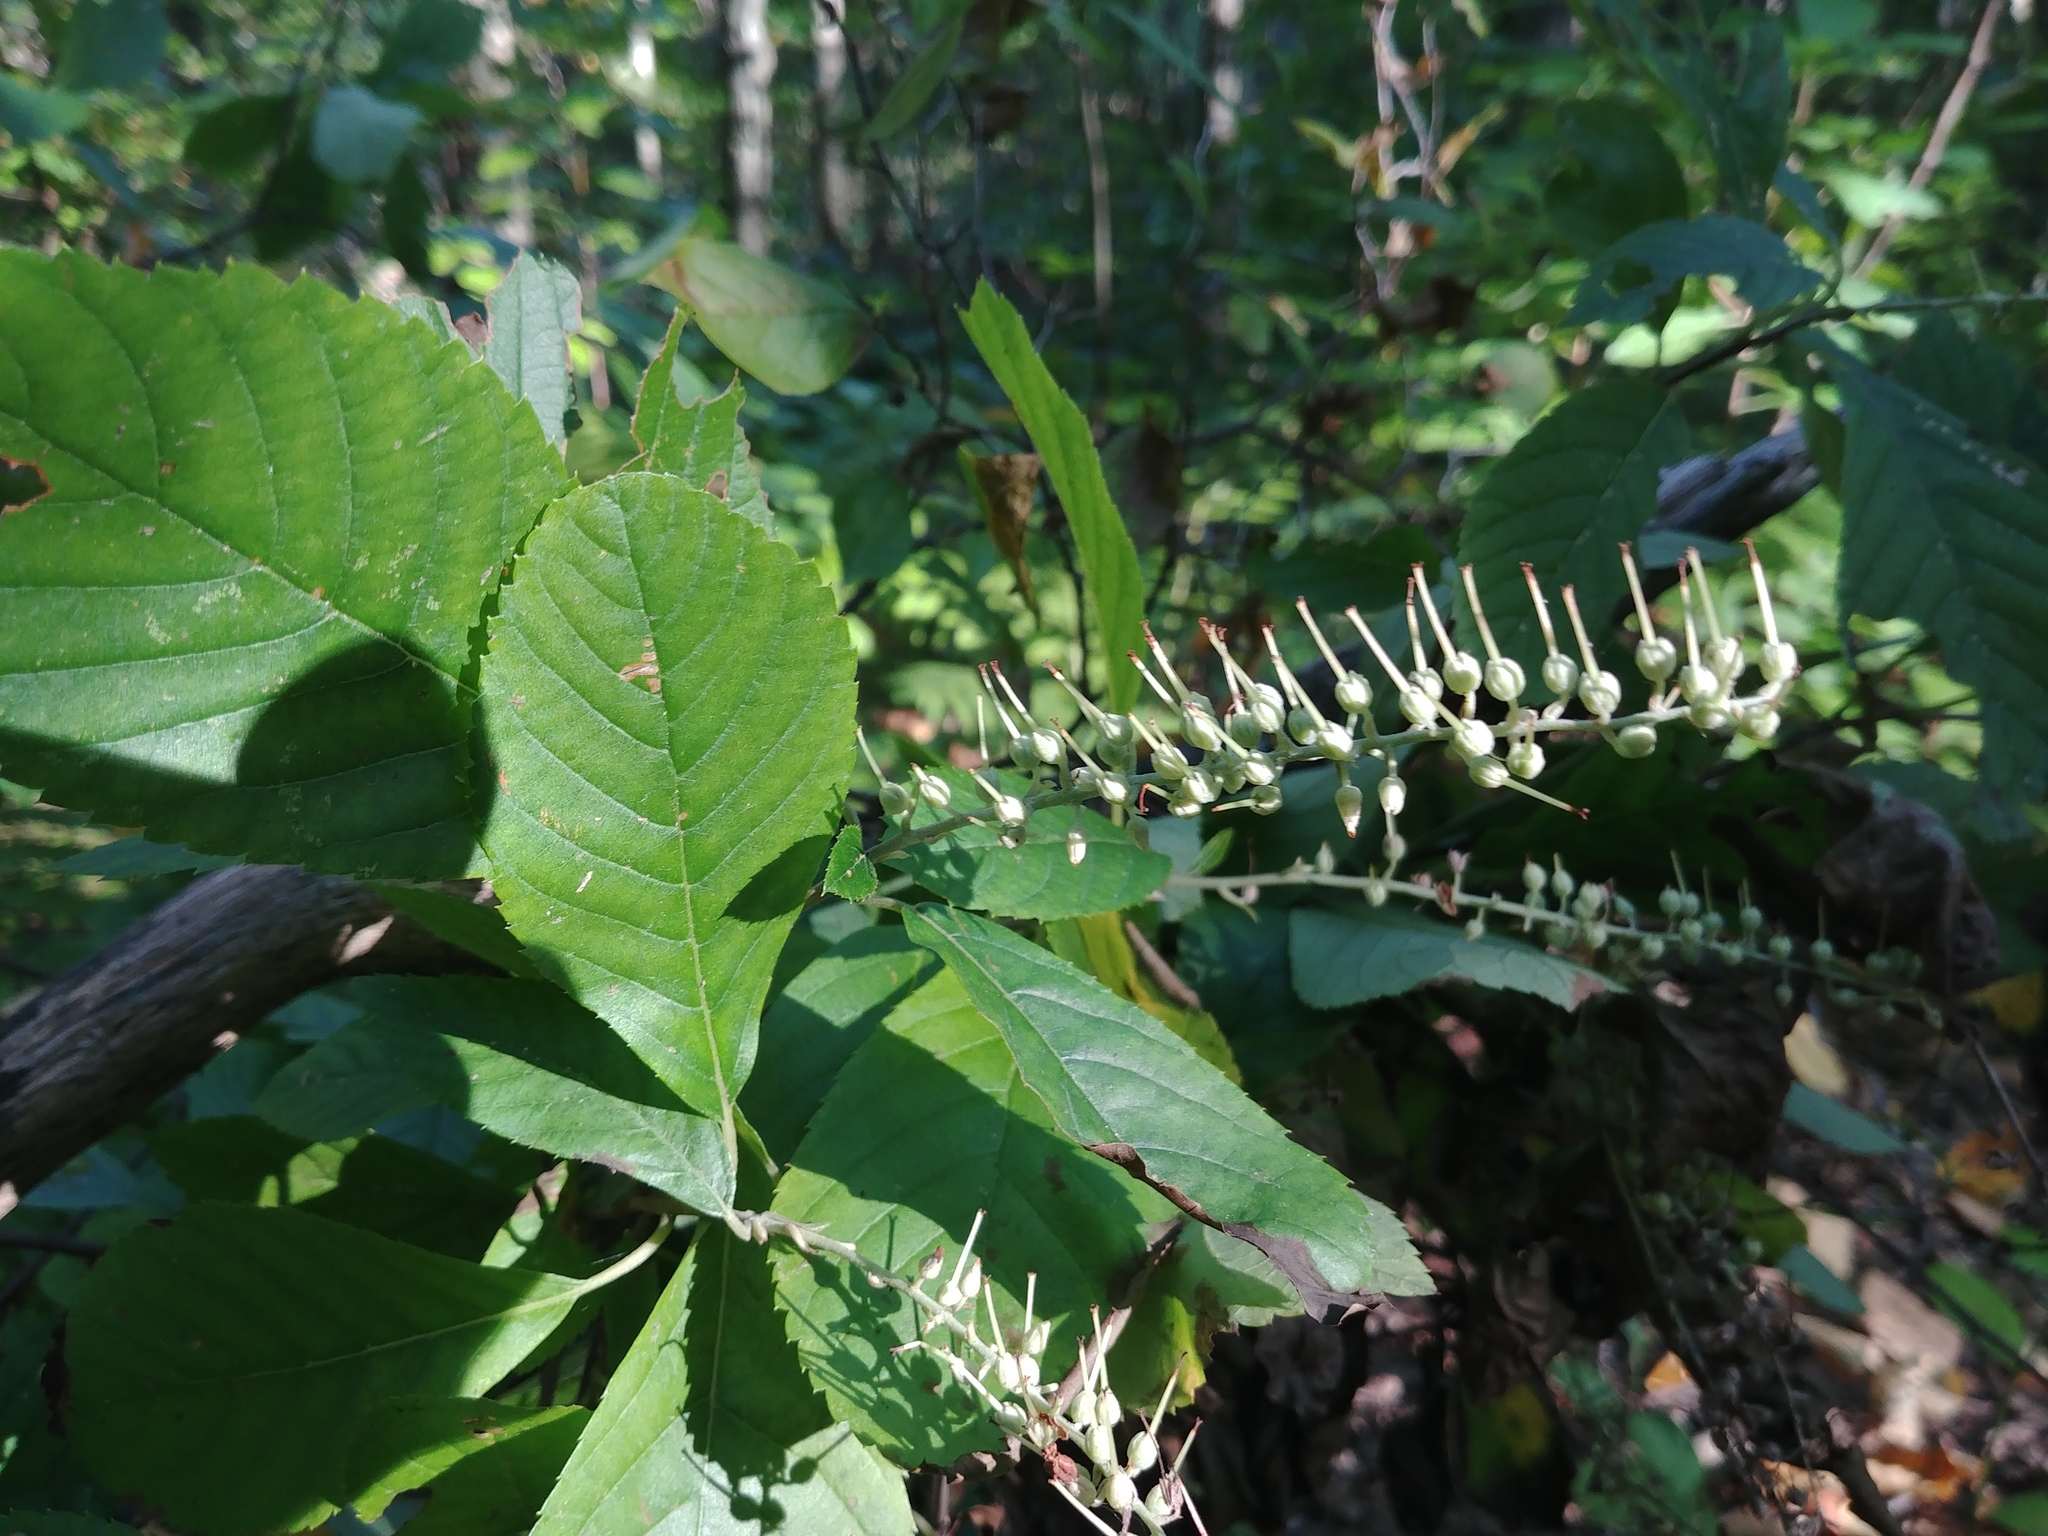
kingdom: Plantae
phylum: Tracheophyta
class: Magnoliopsida
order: Ericales
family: Clethraceae
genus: Clethra
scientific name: Clethra alnifolia
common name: Sweet pepperbush
